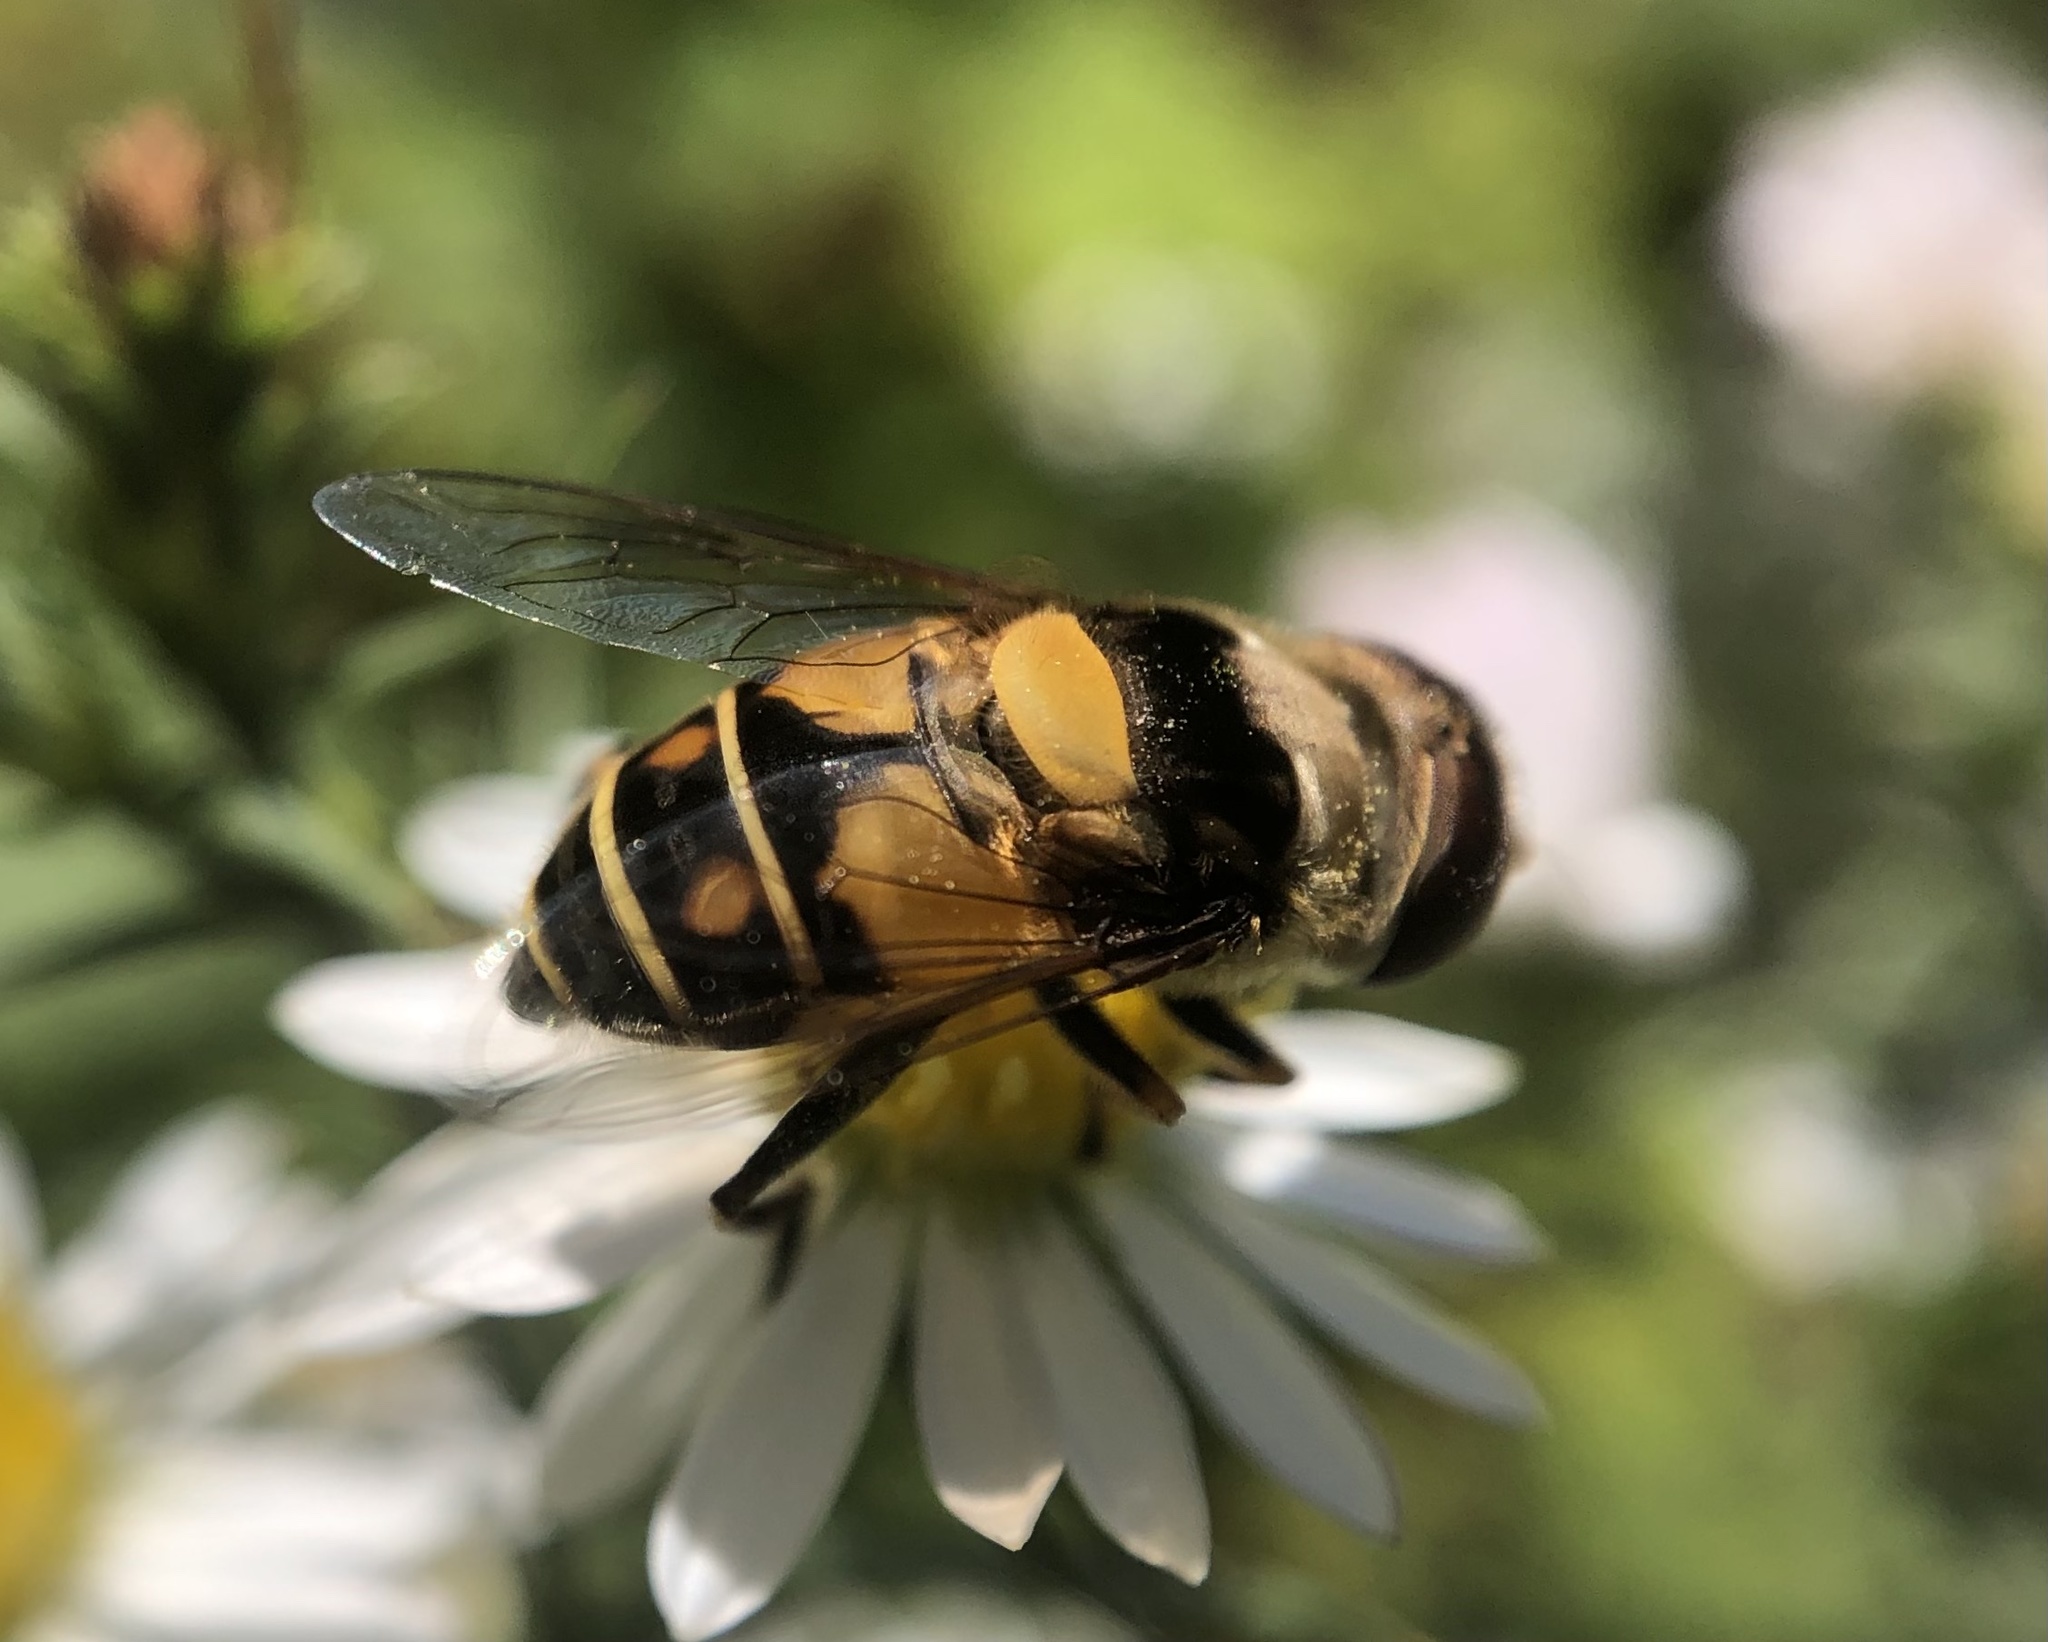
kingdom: Animalia
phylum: Arthropoda
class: Insecta
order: Diptera
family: Syrphidae
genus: Palpada
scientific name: Palpada pusilla
